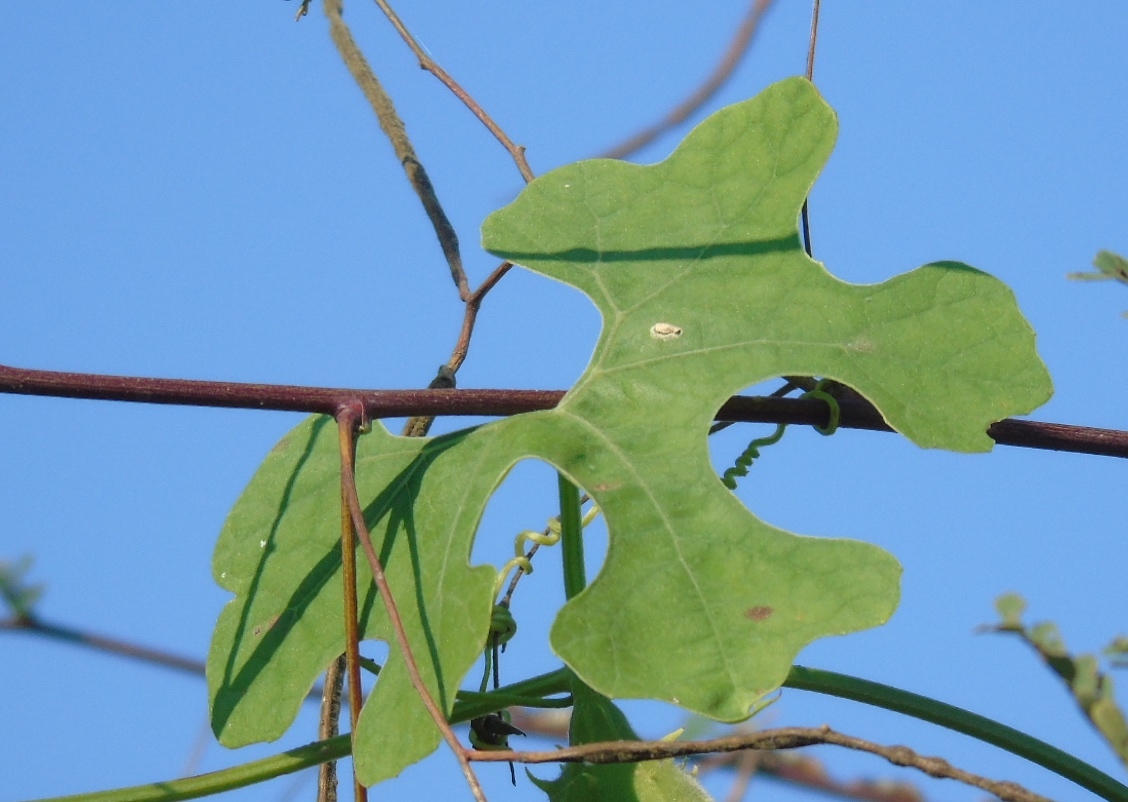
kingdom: Plantae
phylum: Tracheophyta
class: Magnoliopsida
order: Cucurbitales
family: Cucurbitaceae
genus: Luffa
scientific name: Luffa
